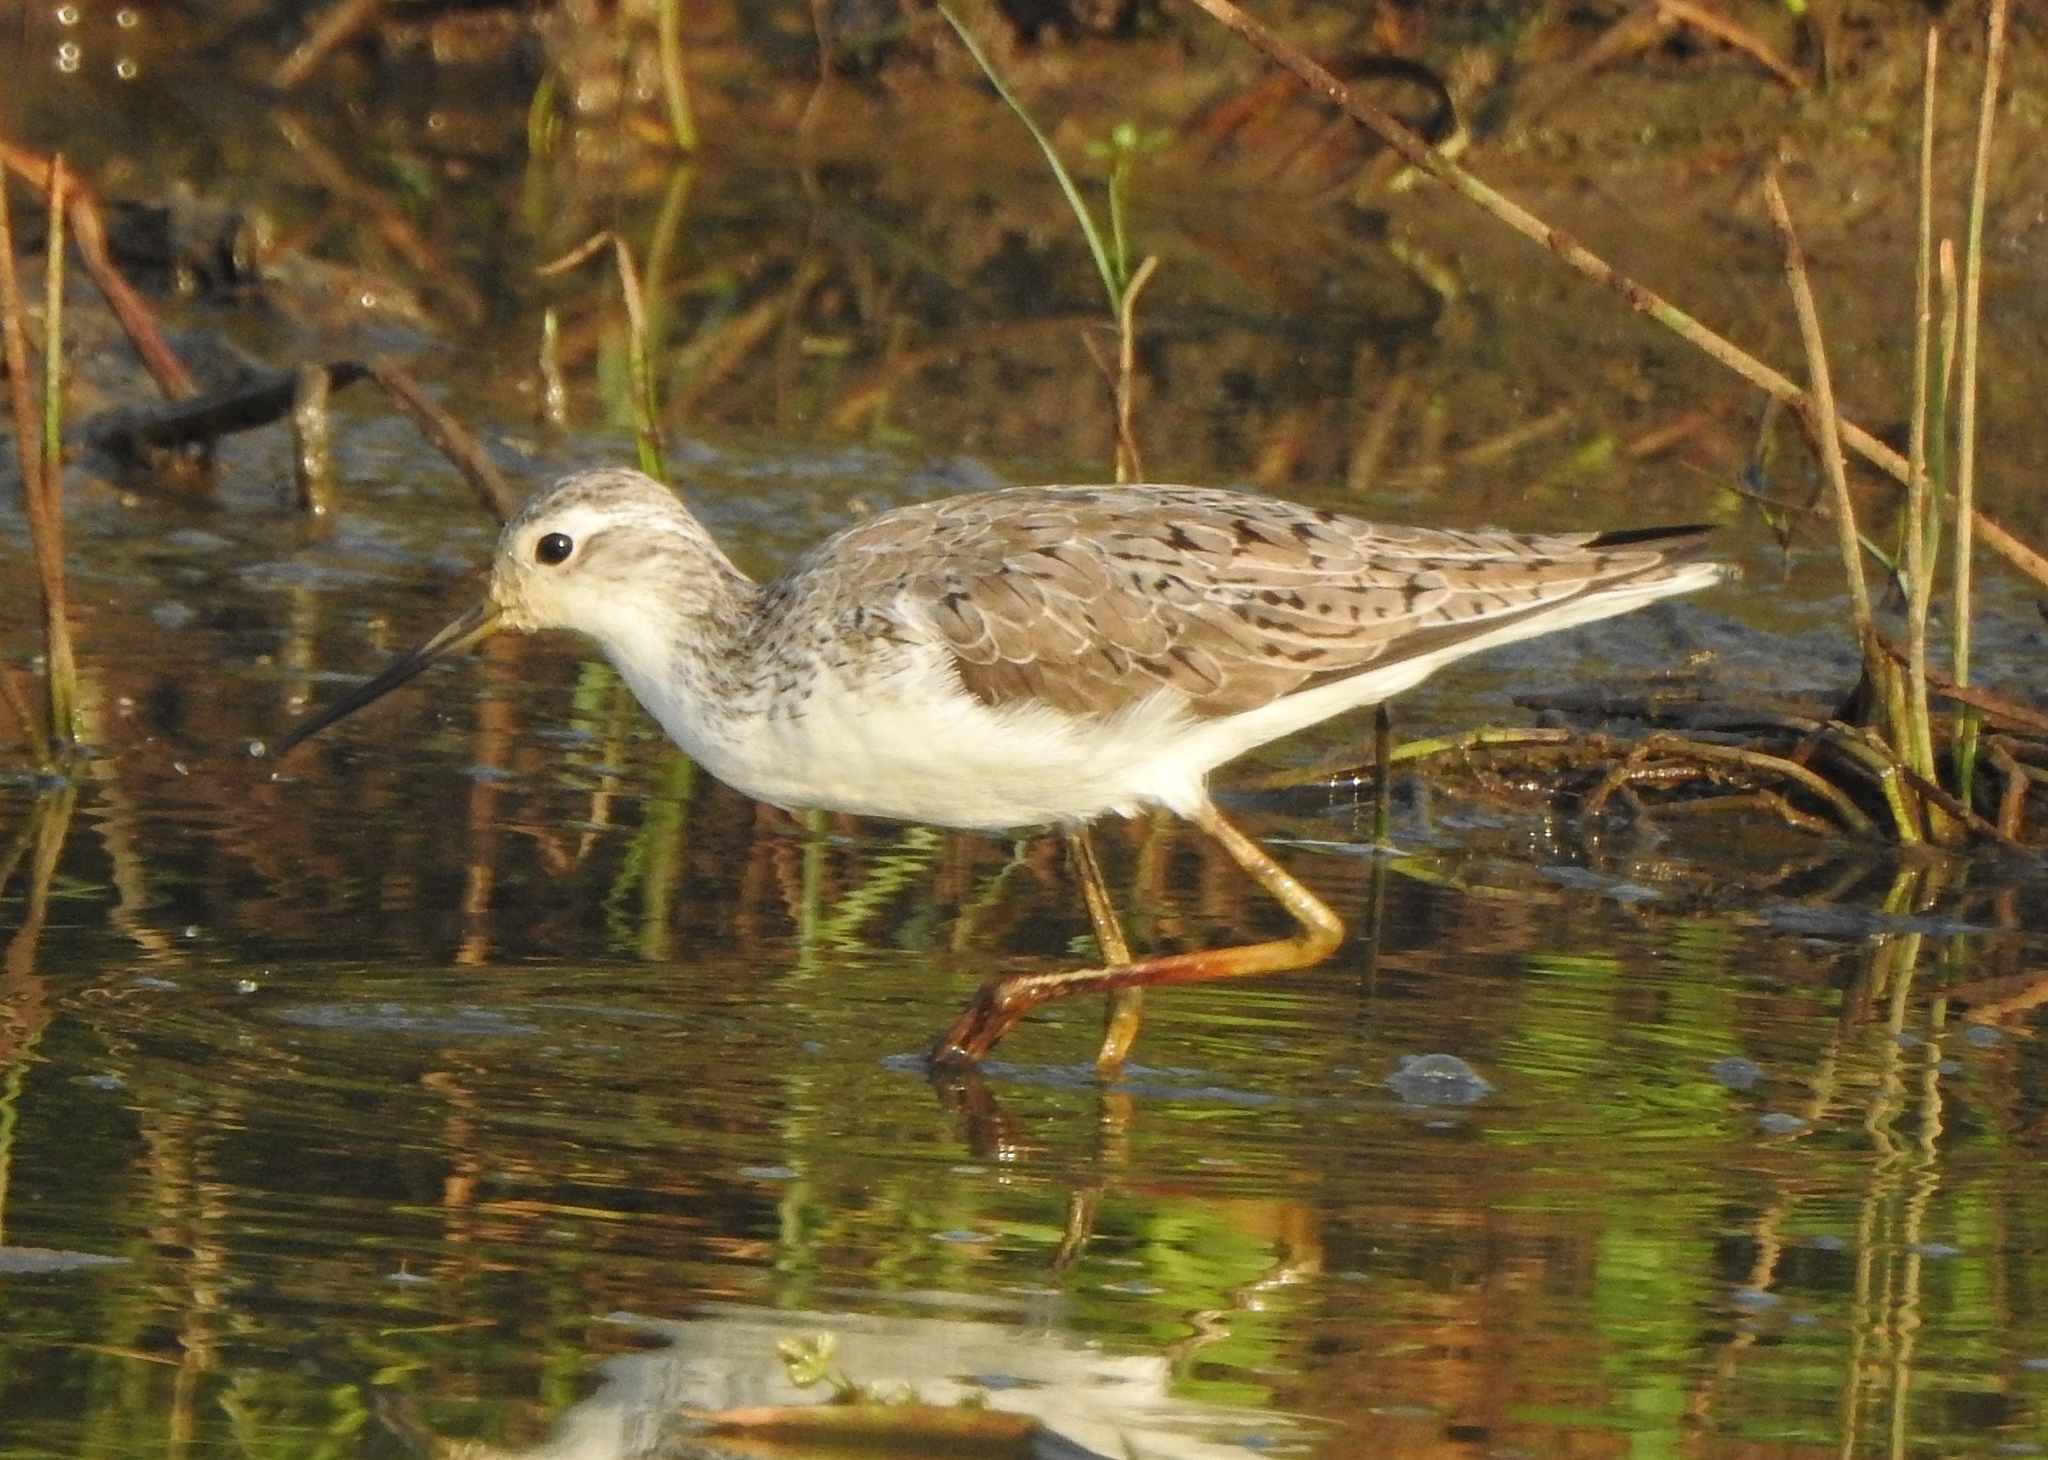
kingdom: Animalia
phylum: Chordata
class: Aves
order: Charadriiformes
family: Scolopacidae
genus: Tringa
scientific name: Tringa stagnatilis
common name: Marsh sandpiper
